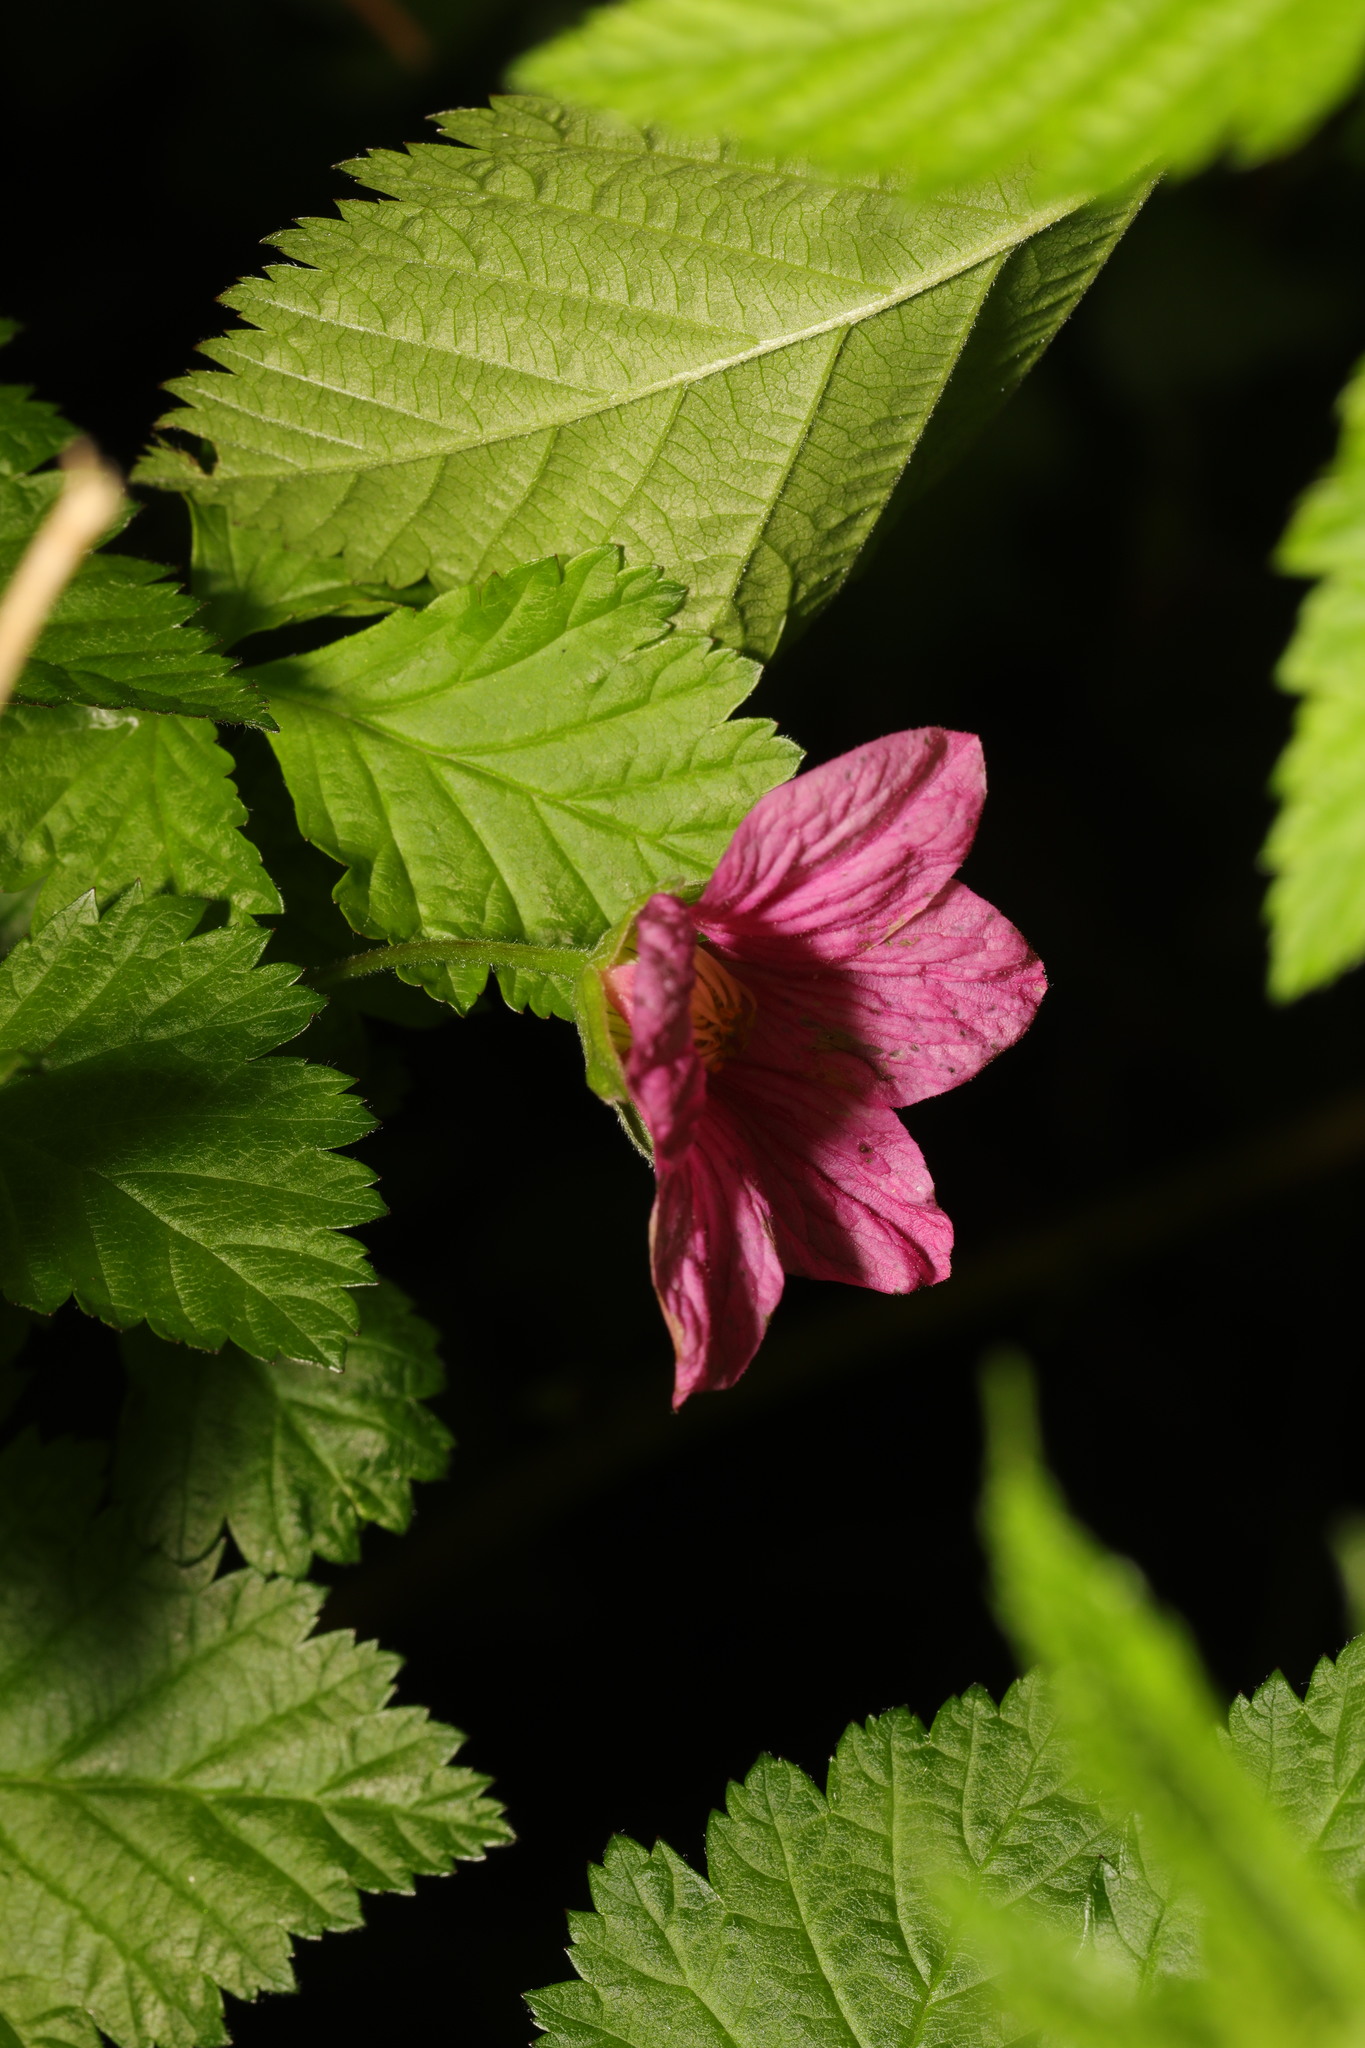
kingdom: Plantae
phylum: Tracheophyta
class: Magnoliopsida
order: Rosales
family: Rosaceae
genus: Rubus
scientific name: Rubus spectabilis
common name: Salmonberry
